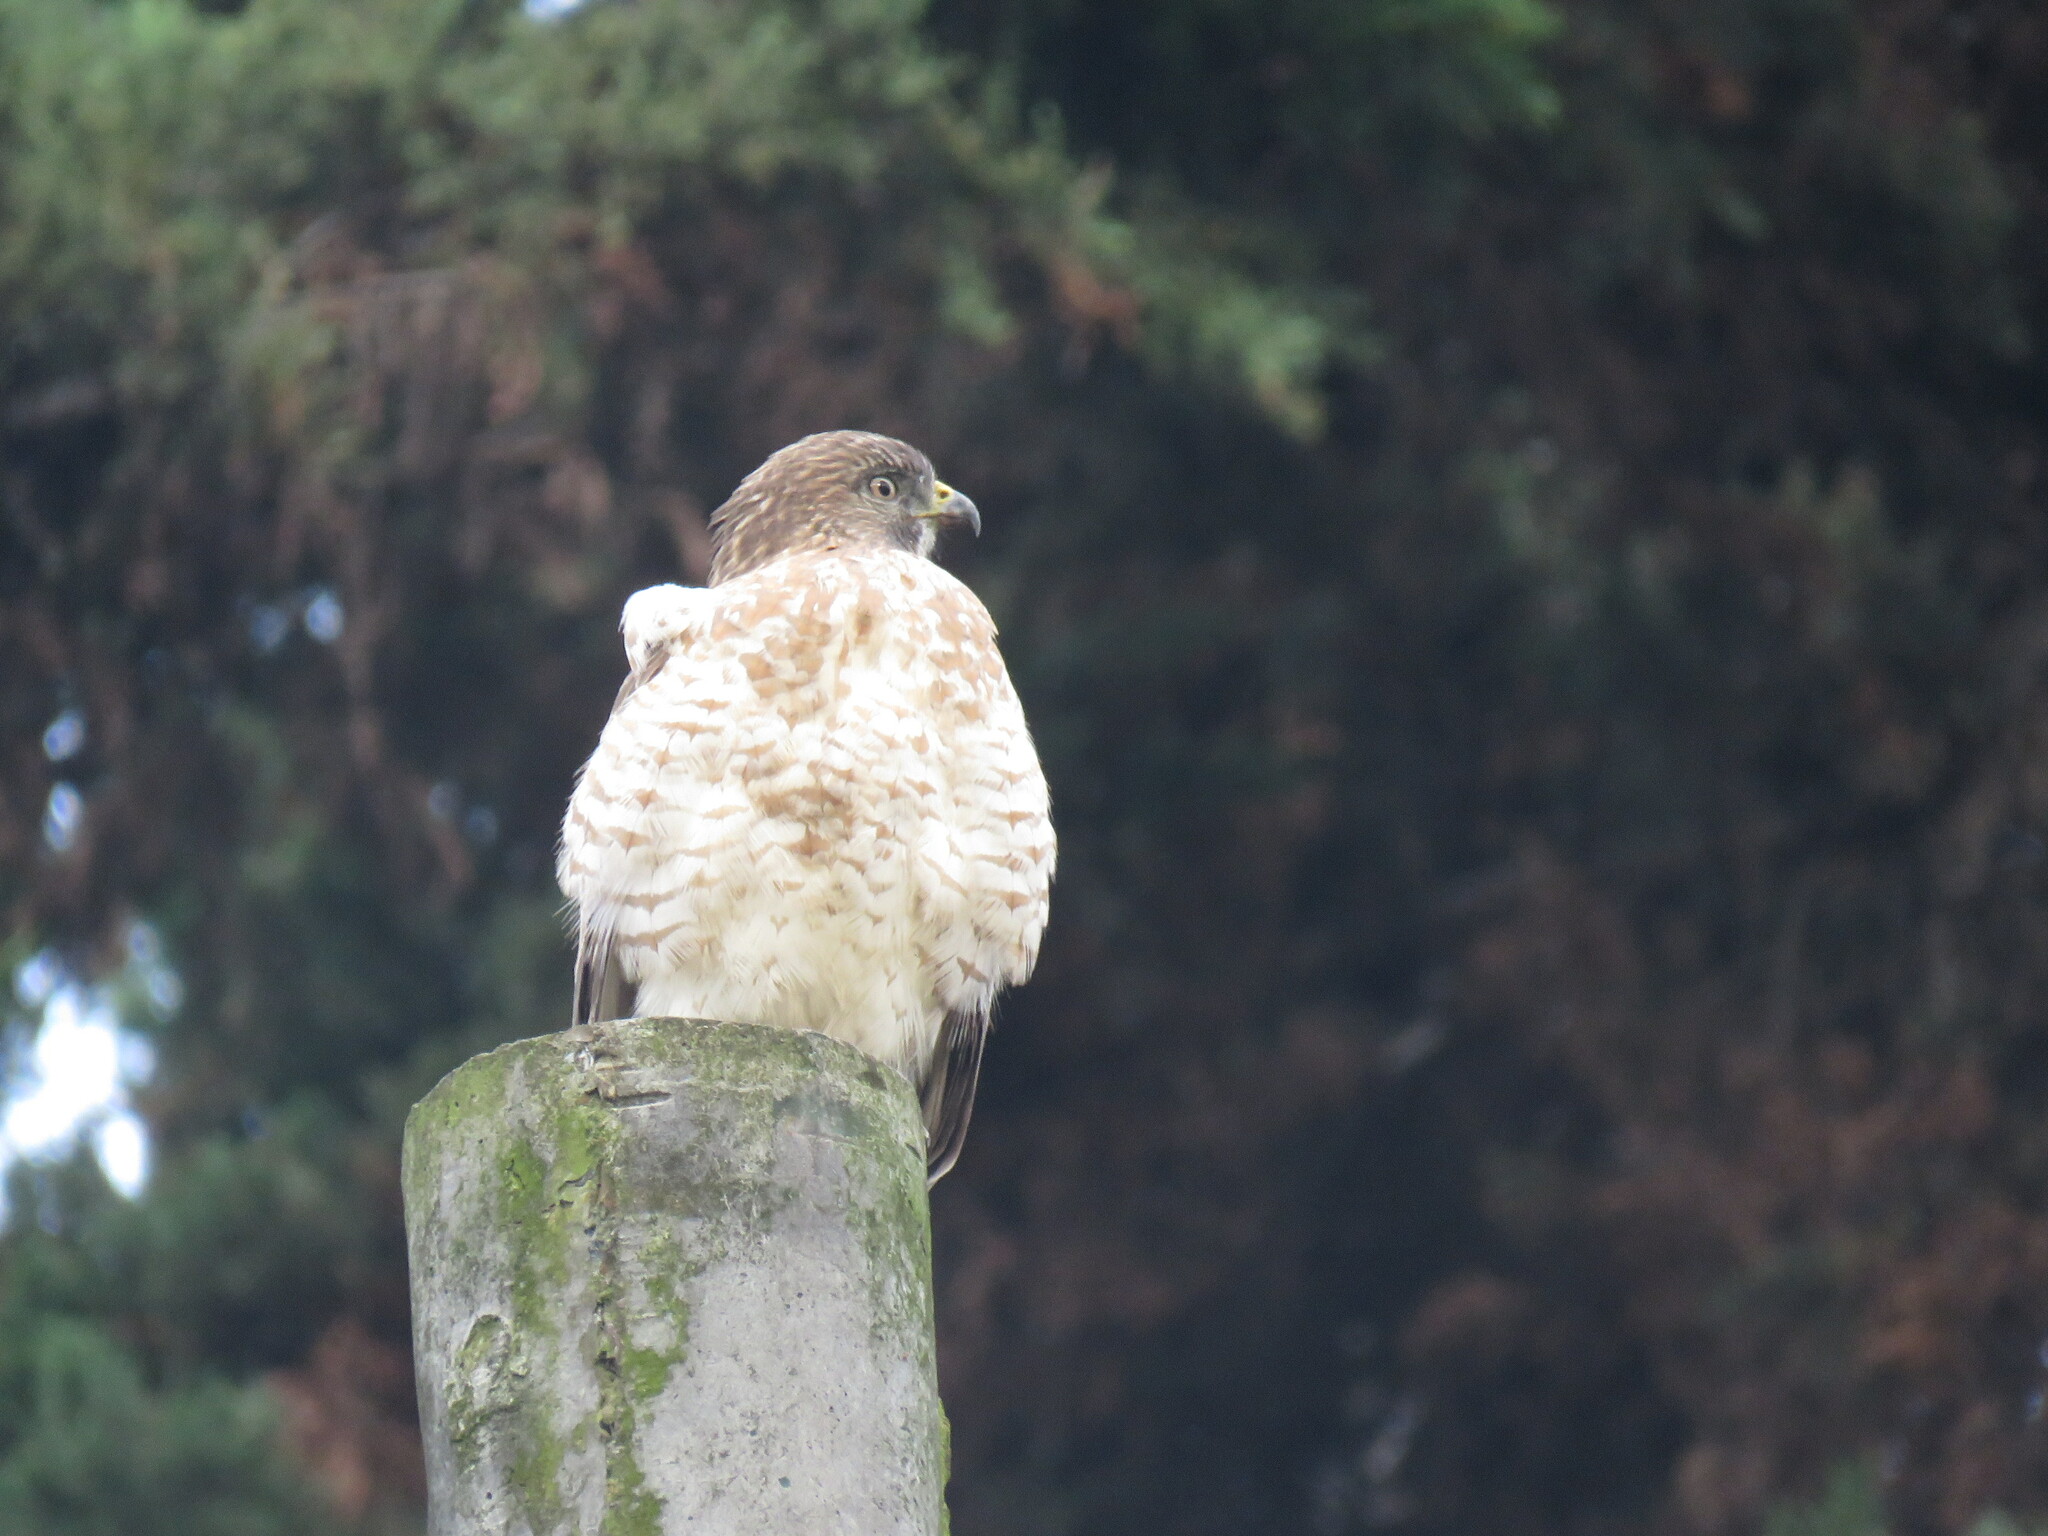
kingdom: Animalia
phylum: Chordata
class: Aves
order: Accipitriformes
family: Accipitridae
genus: Buteo
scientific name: Buteo platypterus
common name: Broad-winged hawk
